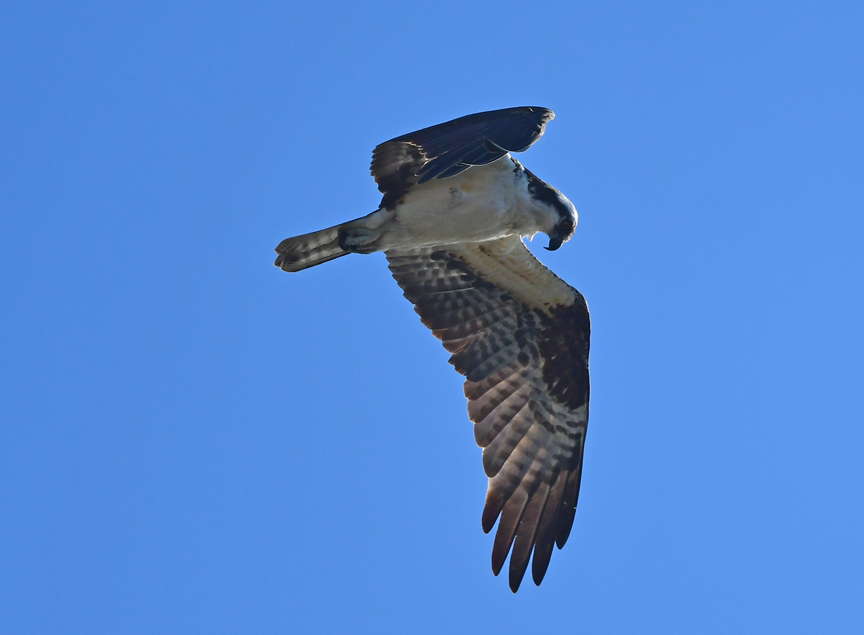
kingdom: Animalia
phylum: Chordata
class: Aves
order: Accipitriformes
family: Pandionidae
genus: Pandion
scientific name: Pandion haliaetus
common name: Osprey
